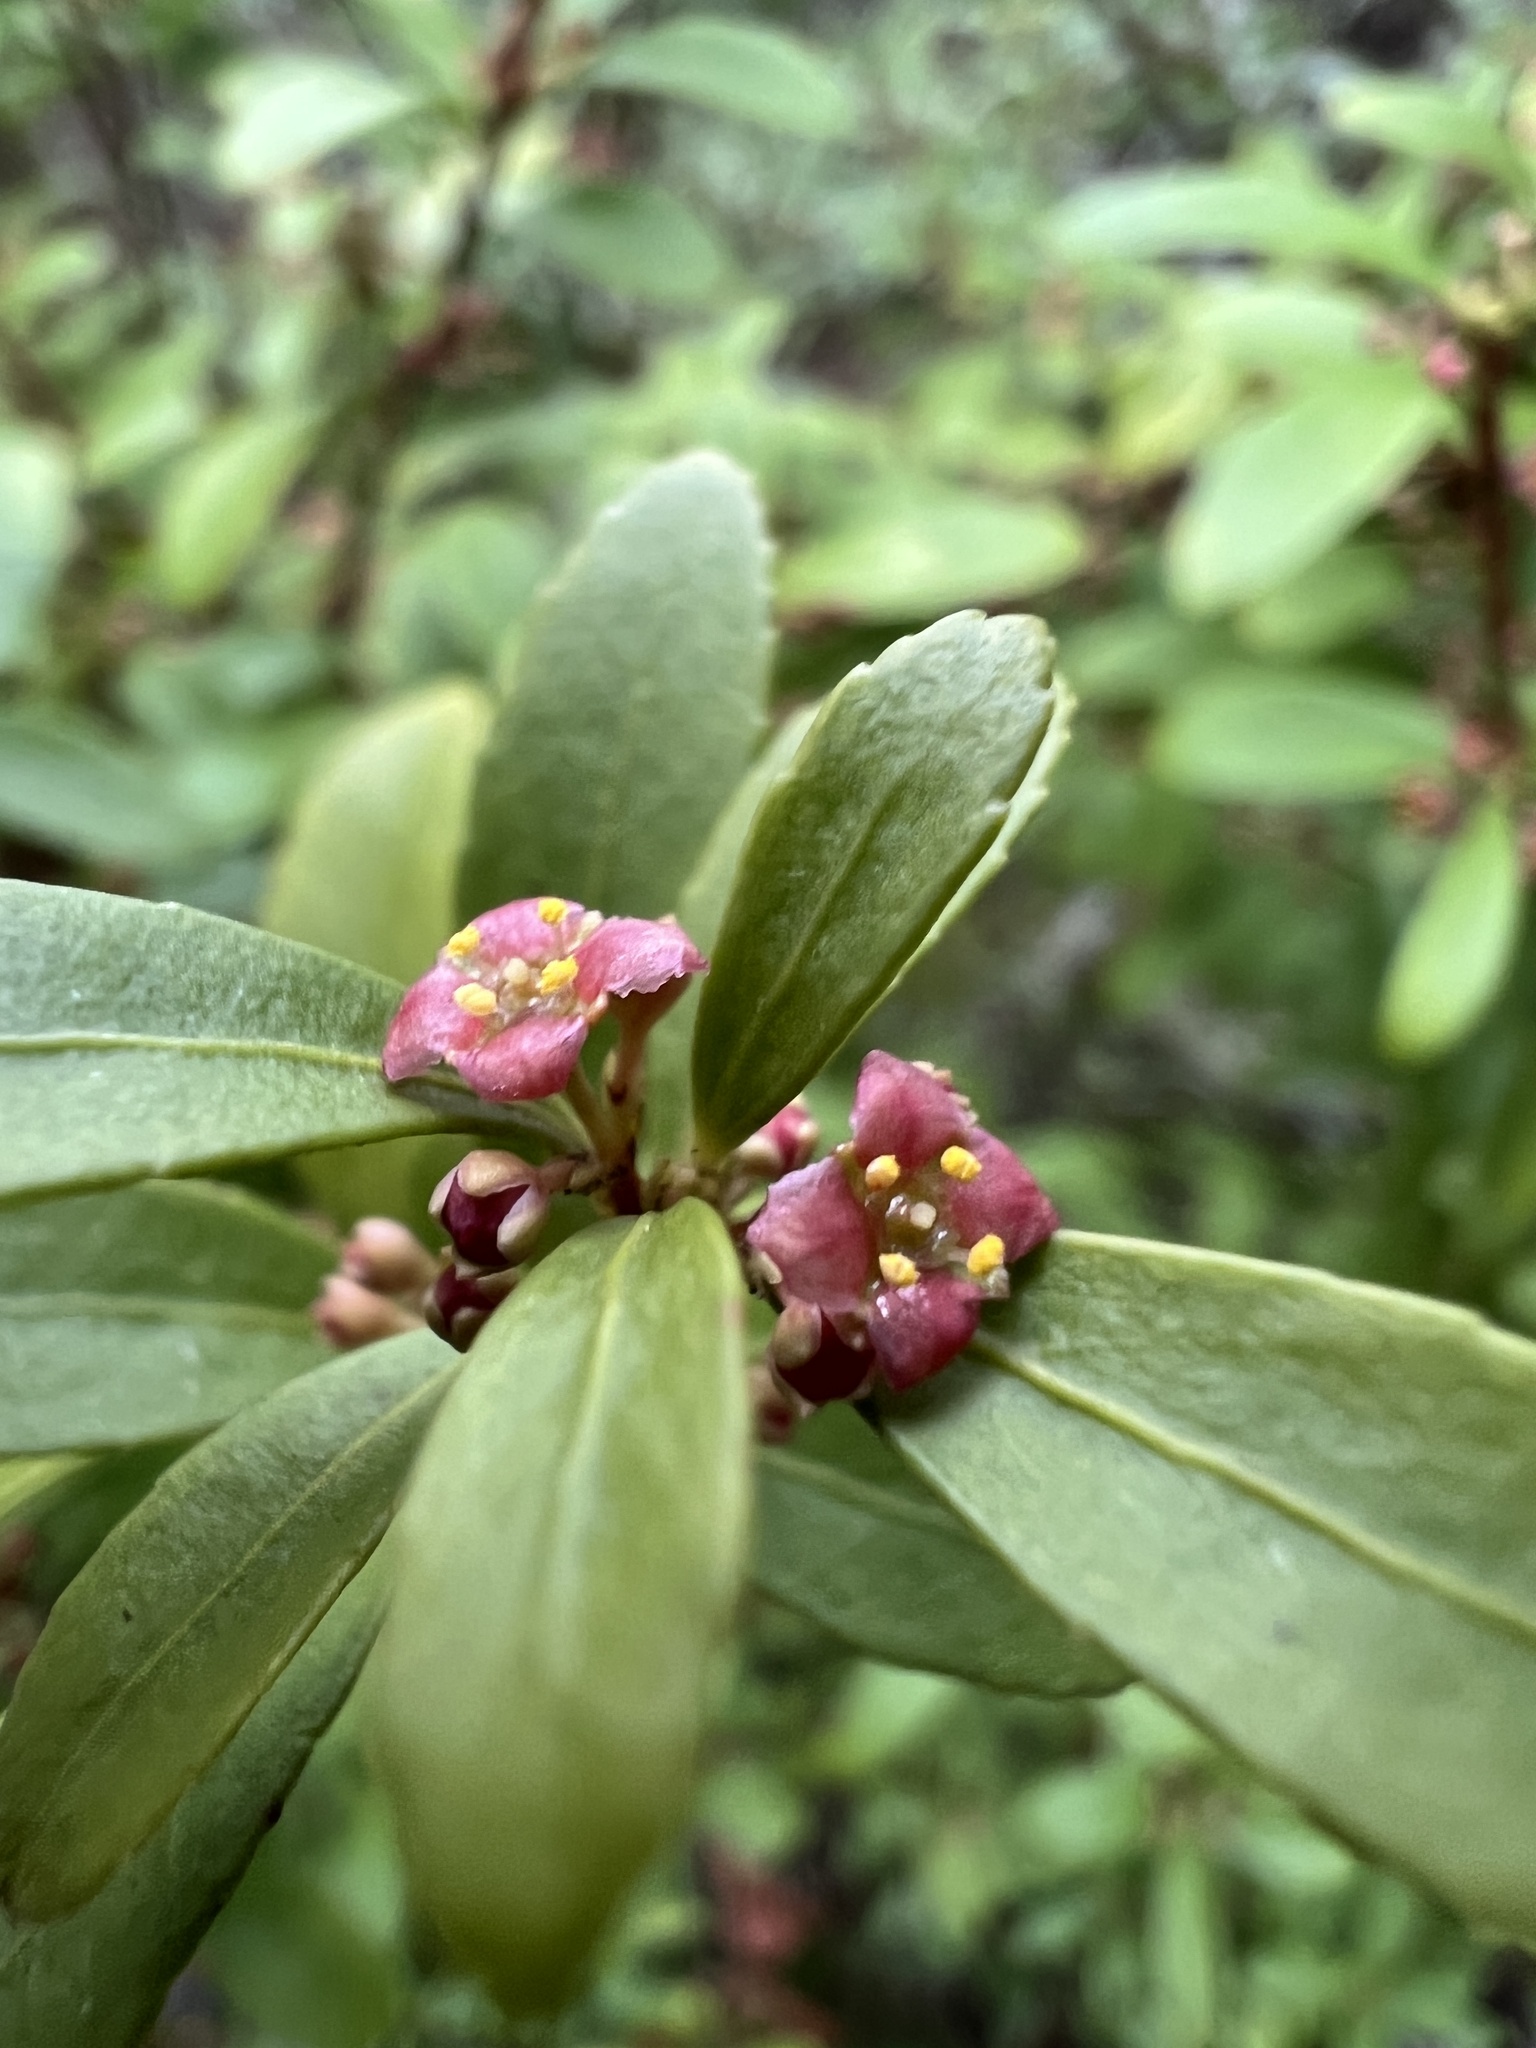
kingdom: Plantae
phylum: Tracheophyta
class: Magnoliopsida
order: Celastrales
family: Celastraceae
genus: Paxistima
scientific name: Paxistima myrsinites
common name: Mountain-lover
